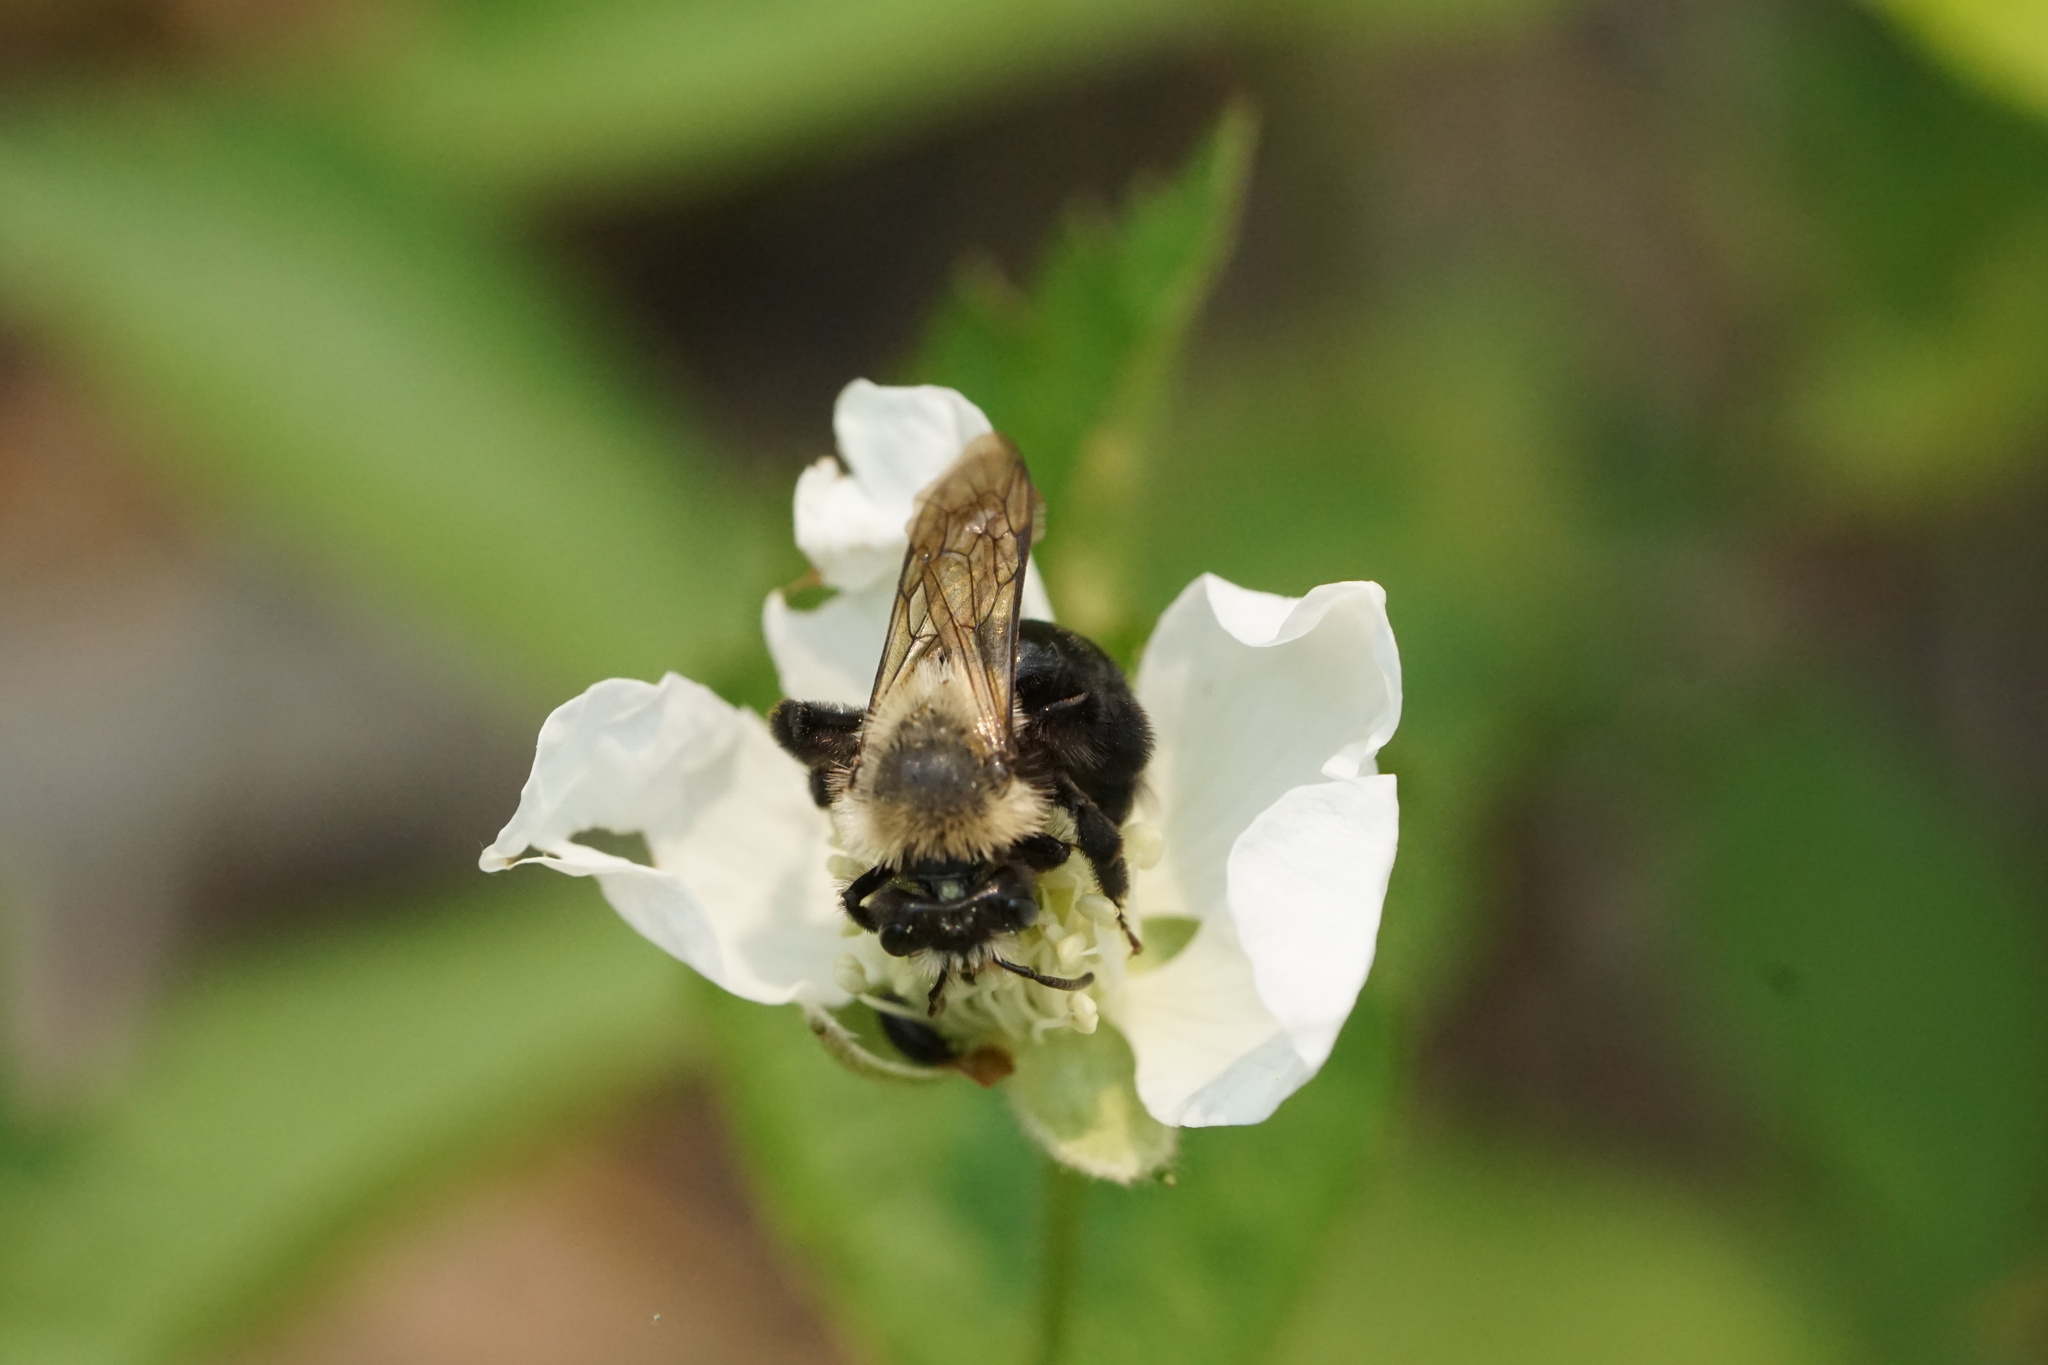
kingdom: Animalia
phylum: Arthropoda
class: Insecta
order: Hymenoptera
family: Andrenidae
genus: Andrena
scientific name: Andrena vicina
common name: Neighborly mining bee
